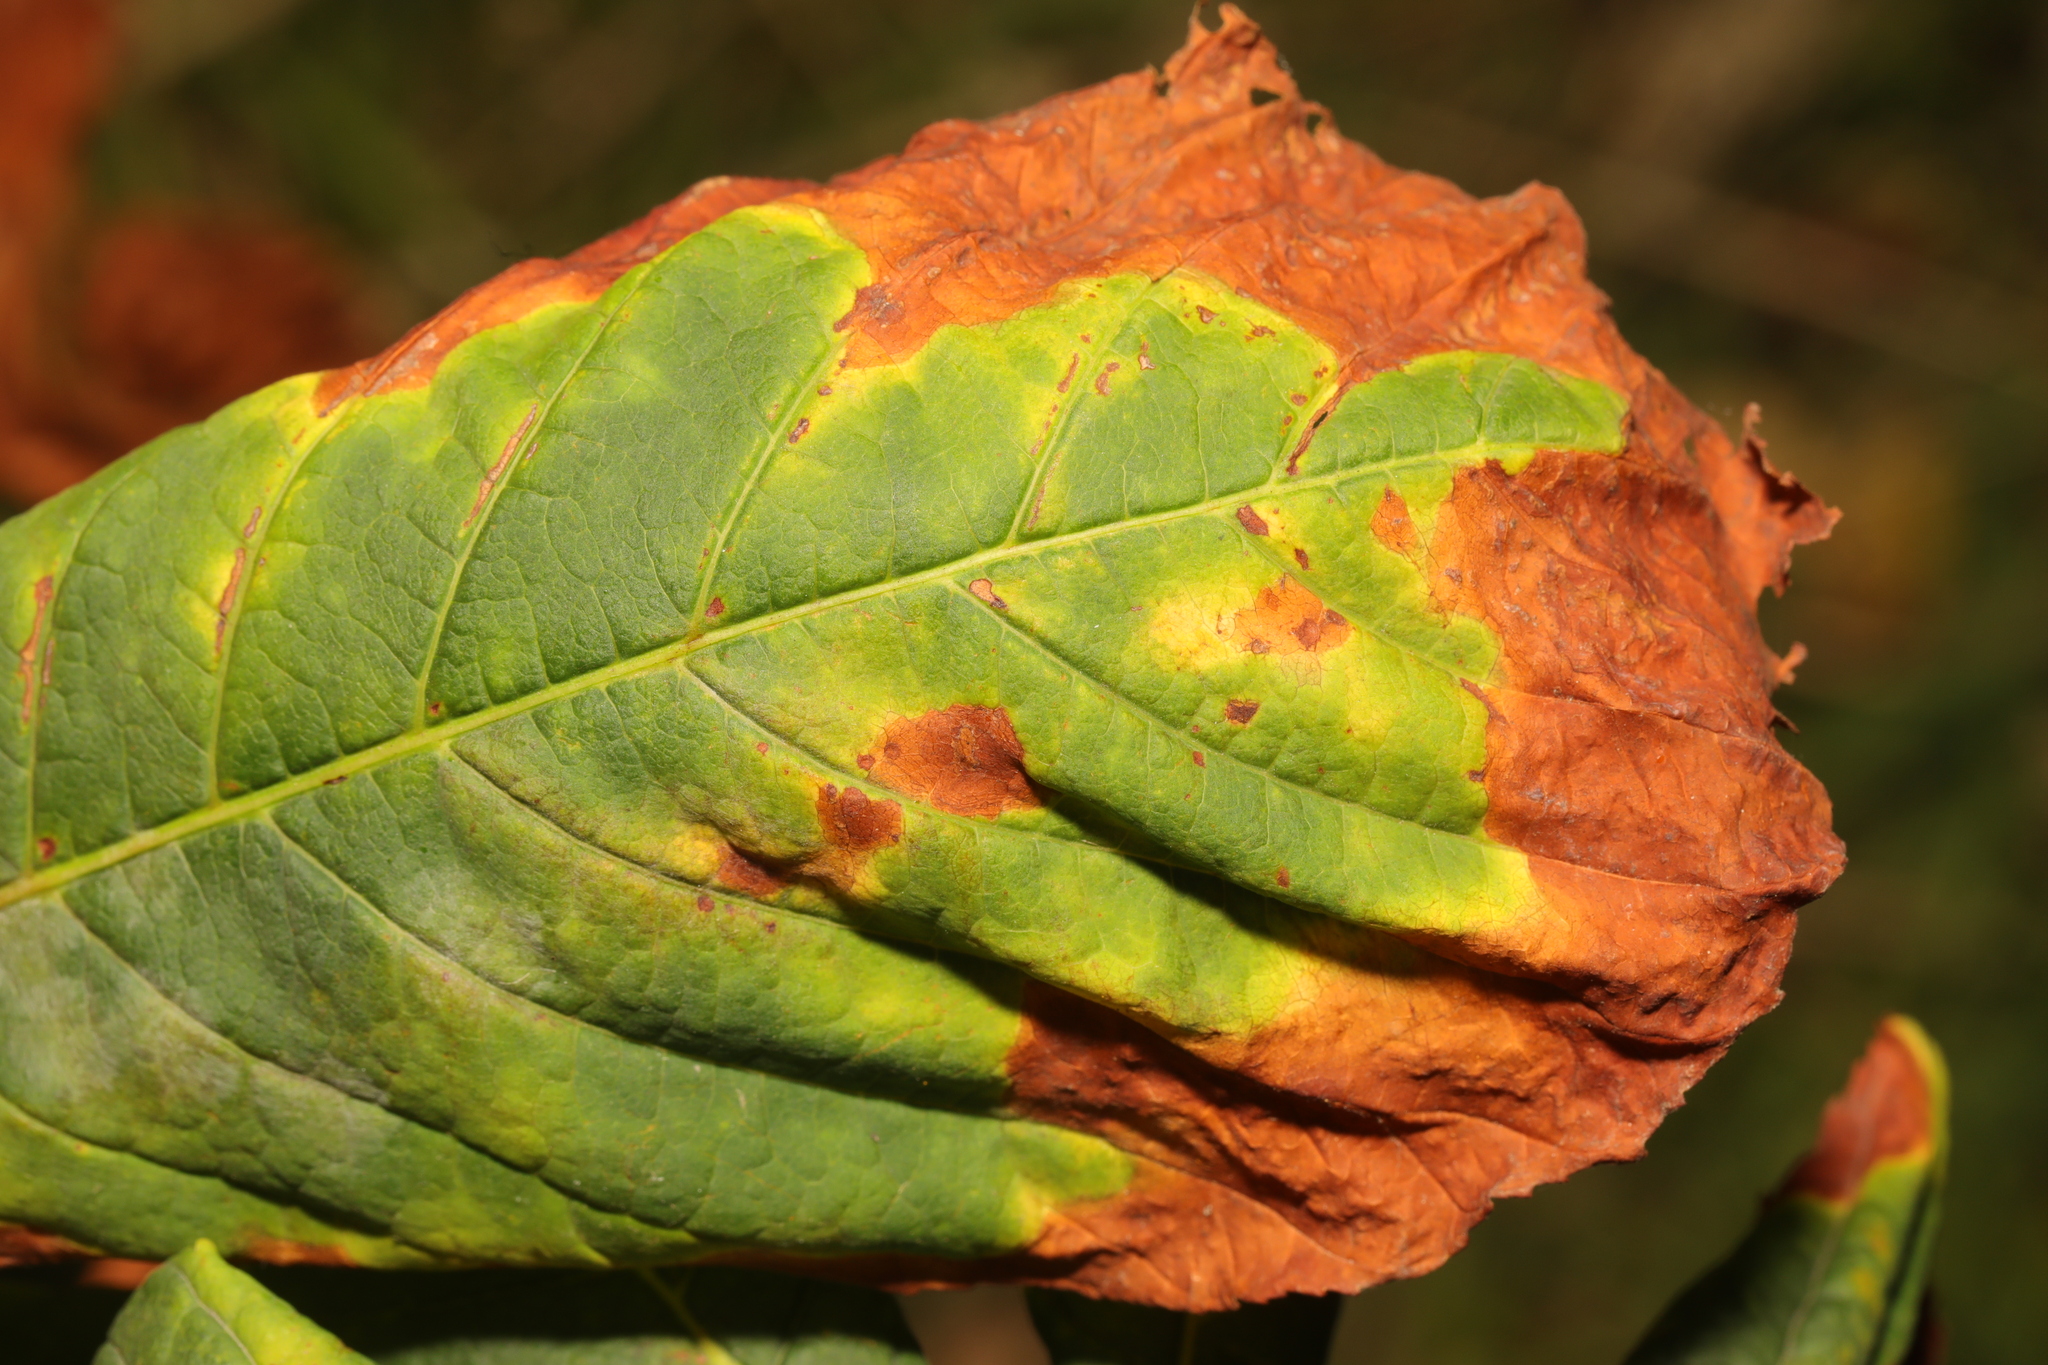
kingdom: Fungi
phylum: Ascomycota
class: Dothideomycetes
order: Botryosphaeriales
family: Phyllostictaceae
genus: Phyllosticta
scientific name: Phyllosticta paviae
